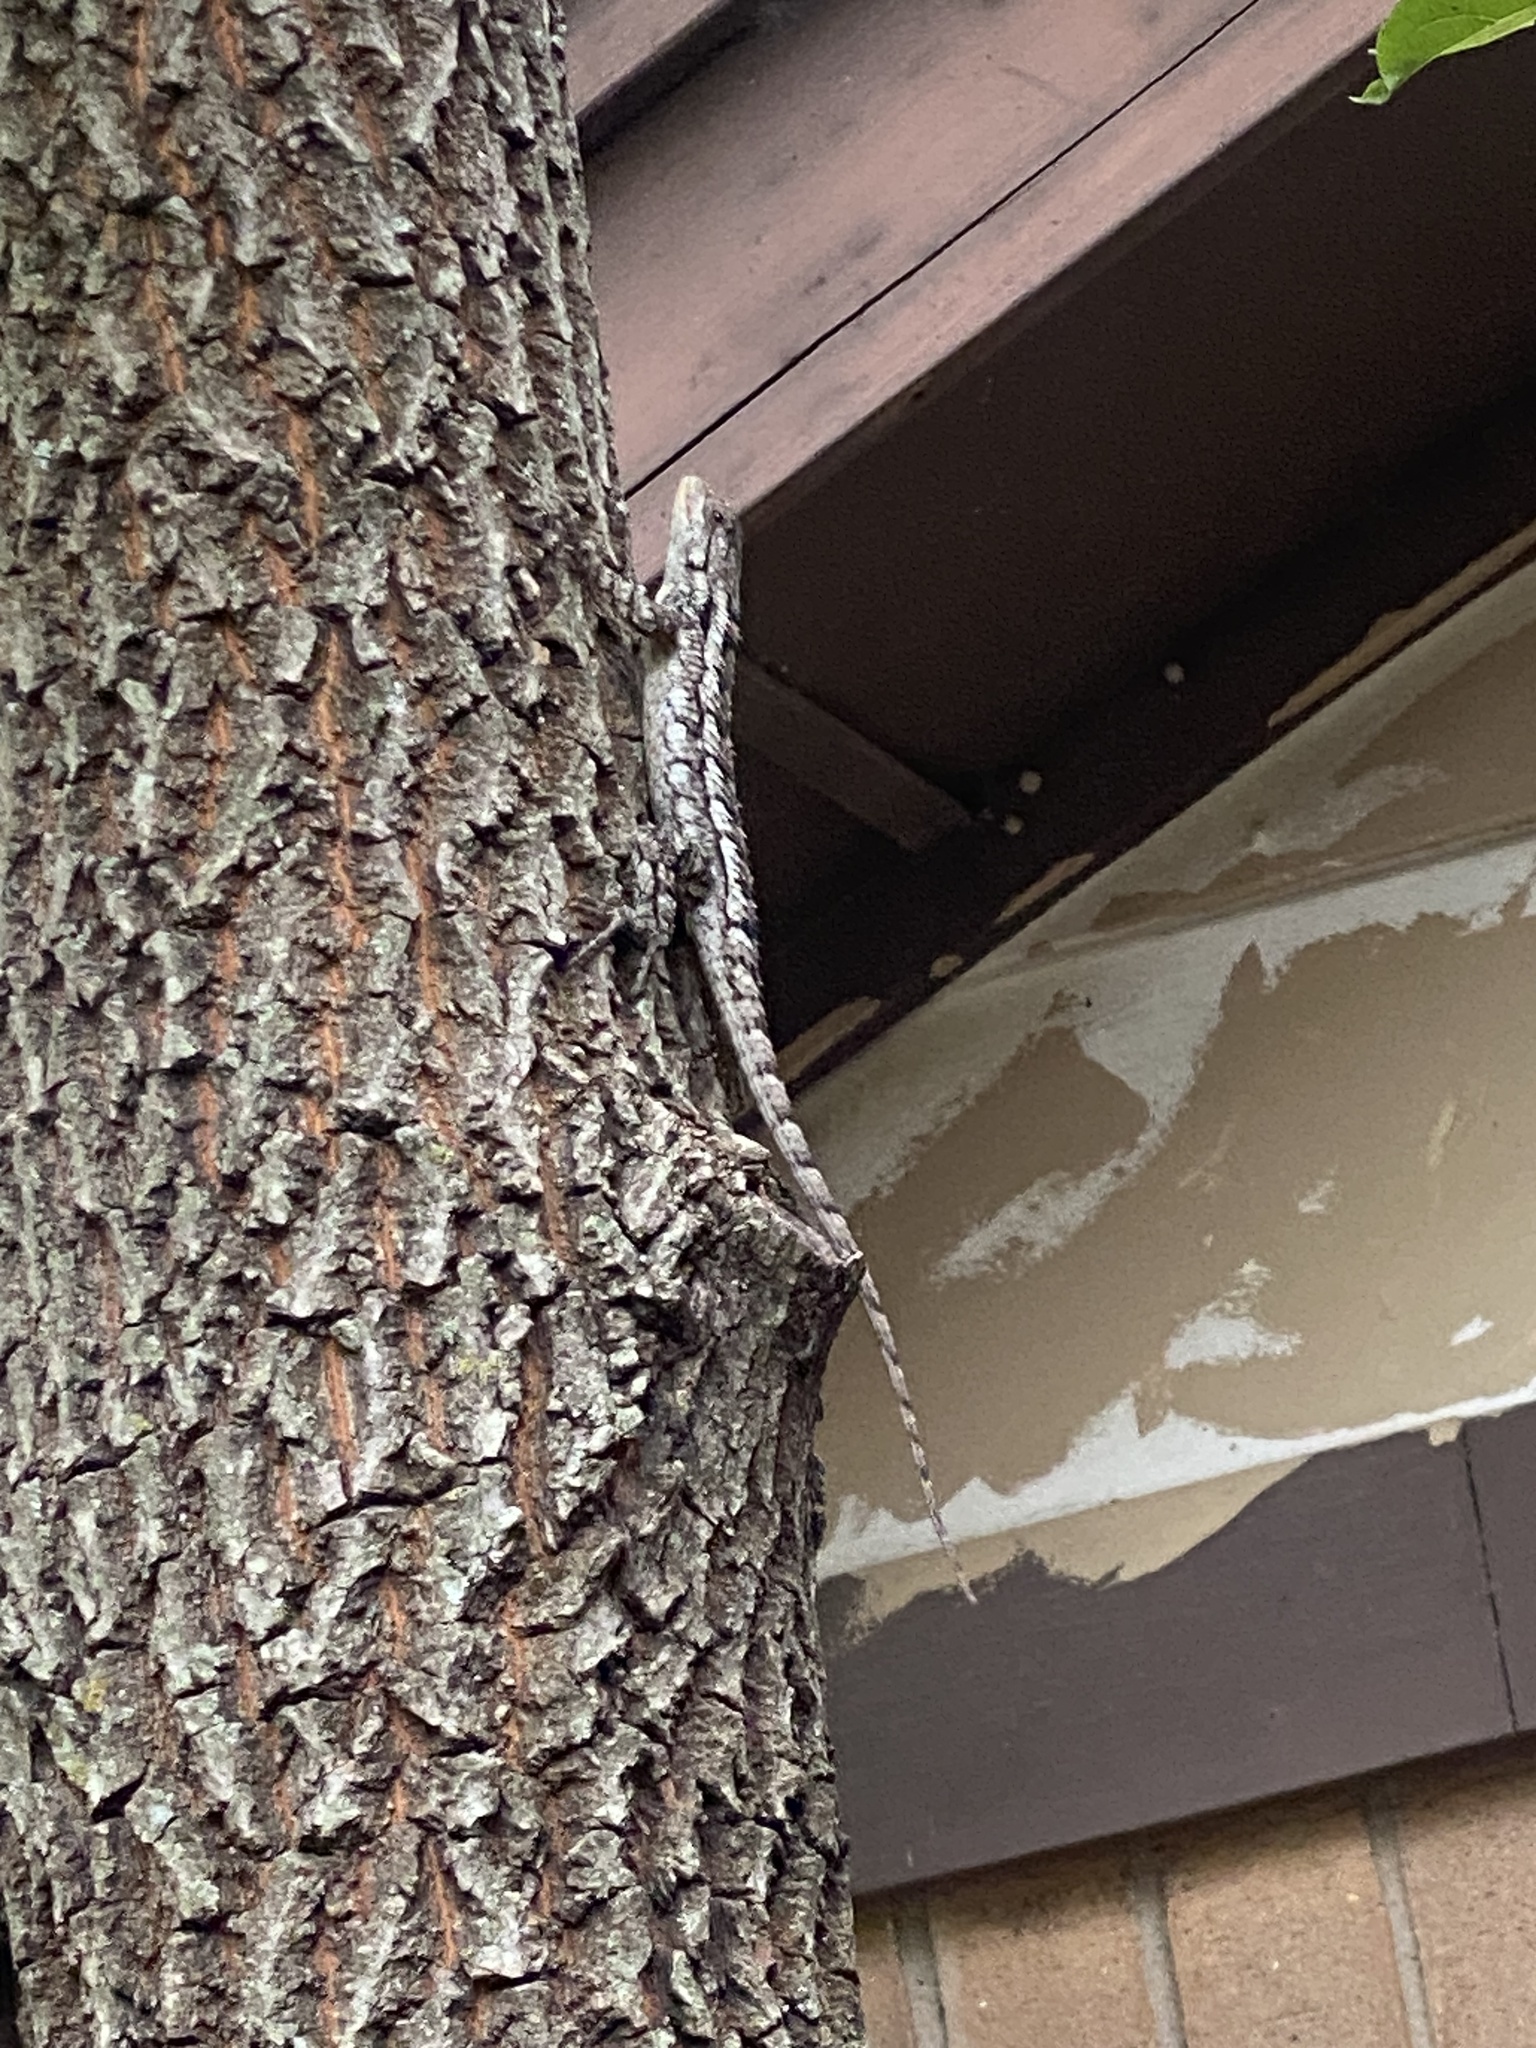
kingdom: Animalia
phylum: Chordata
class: Squamata
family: Phrynosomatidae
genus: Sceloporus
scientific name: Sceloporus olivaceus
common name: Texas spiny lizard
